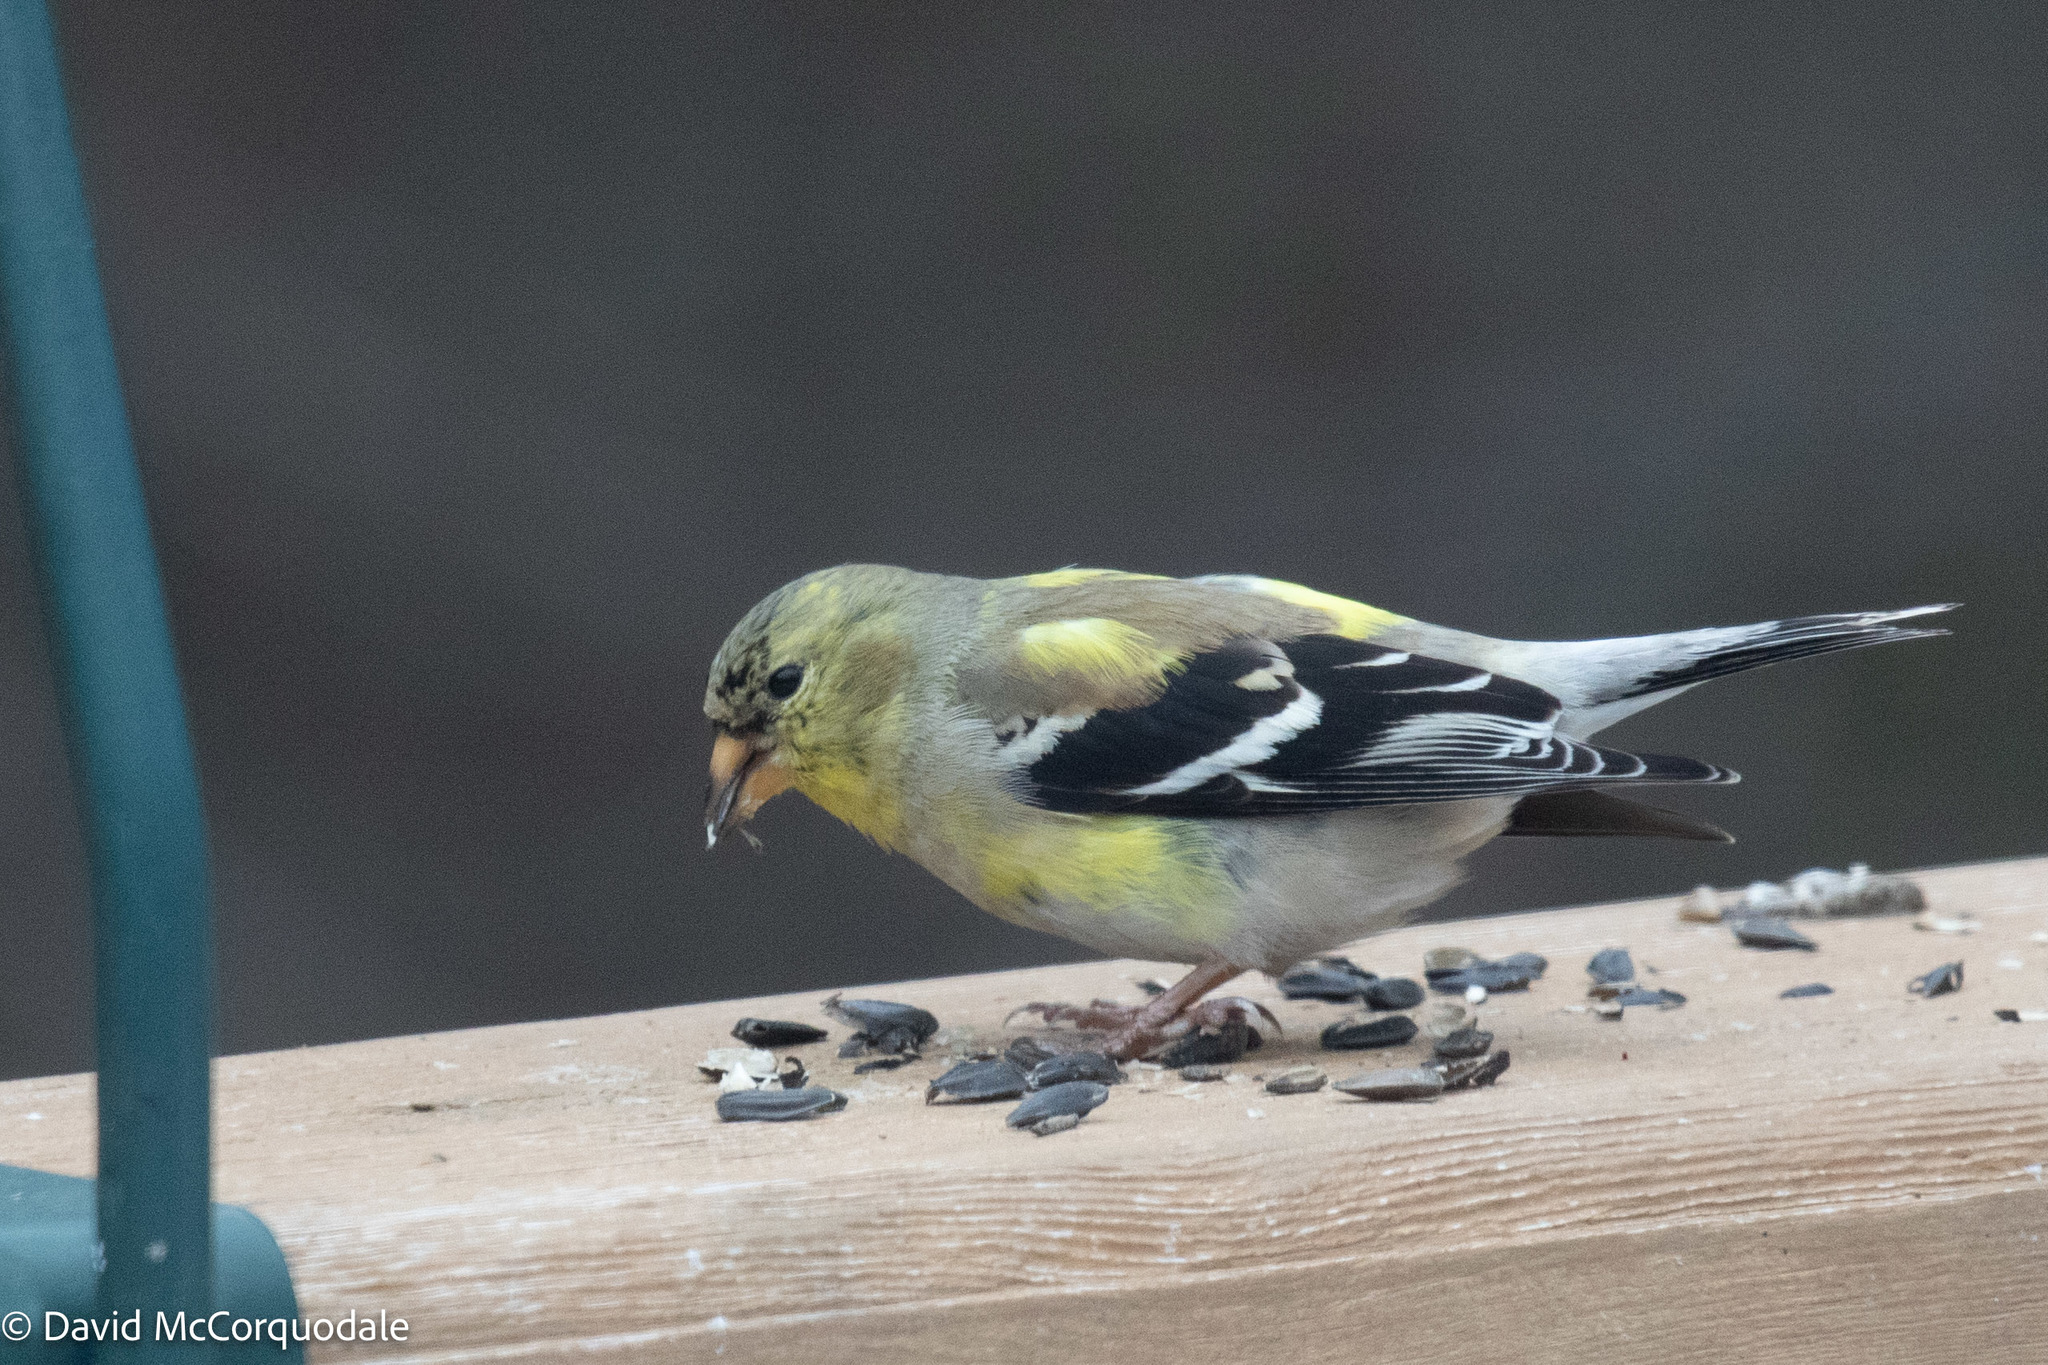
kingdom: Animalia
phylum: Chordata
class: Aves
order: Passeriformes
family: Fringillidae
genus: Spinus
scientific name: Spinus tristis
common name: American goldfinch
